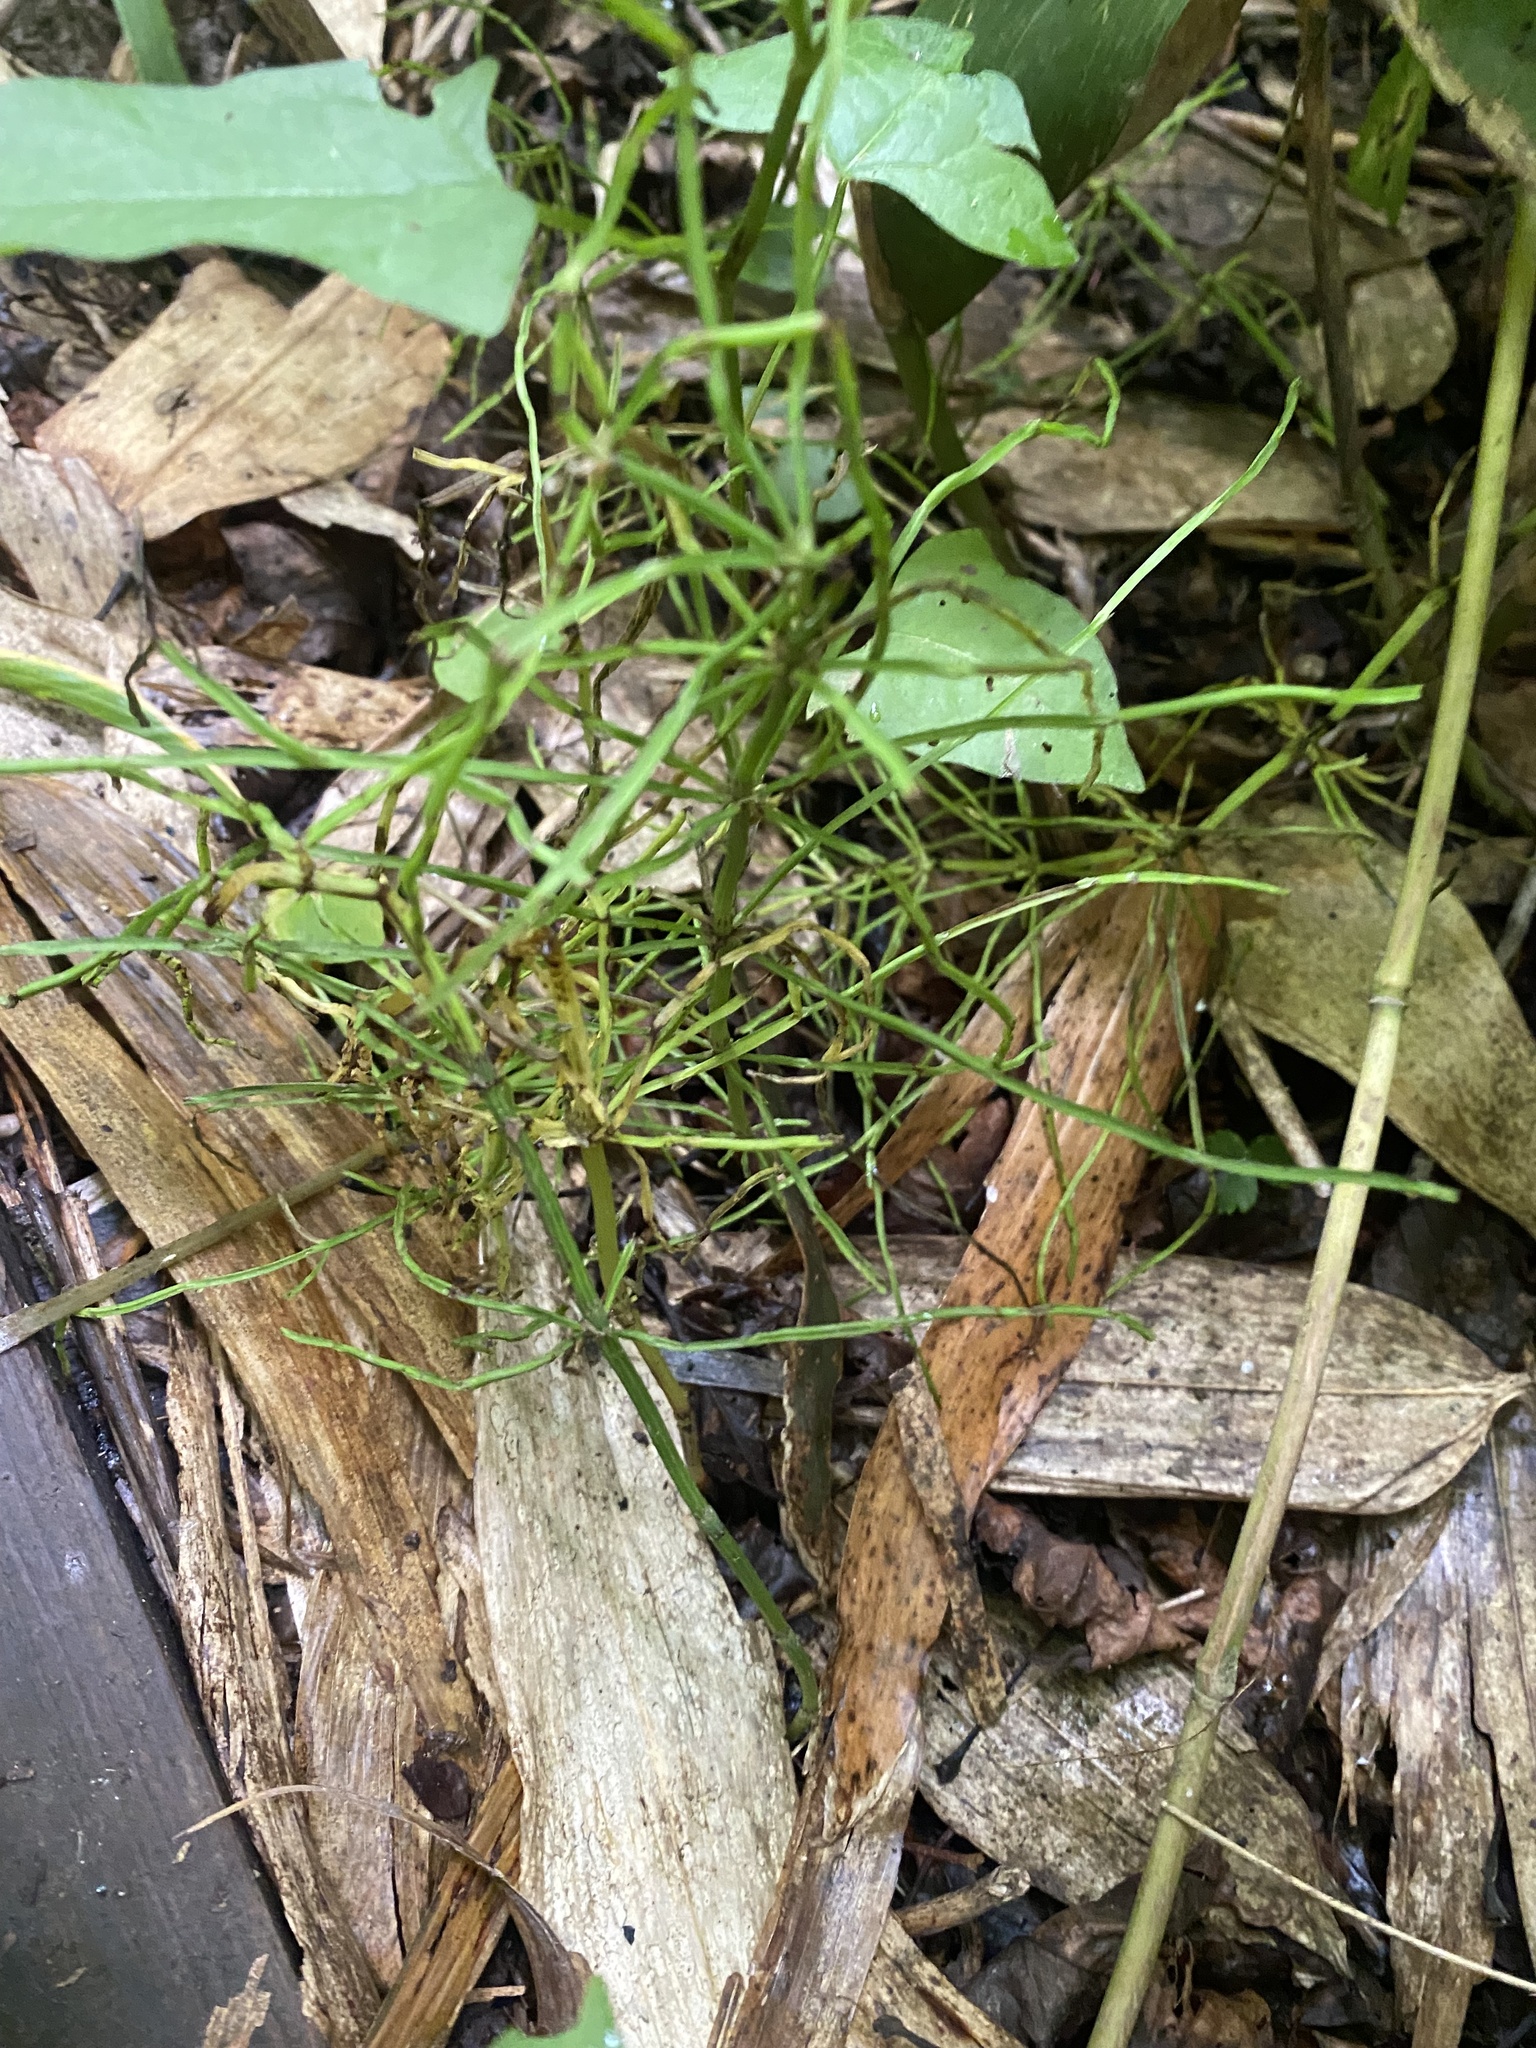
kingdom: Plantae
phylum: Tracheophyta
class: Polypodiopsida
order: Equisetales
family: Equisetaceae
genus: Equisetum
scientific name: Equisetum arvense
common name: Field horsetail
